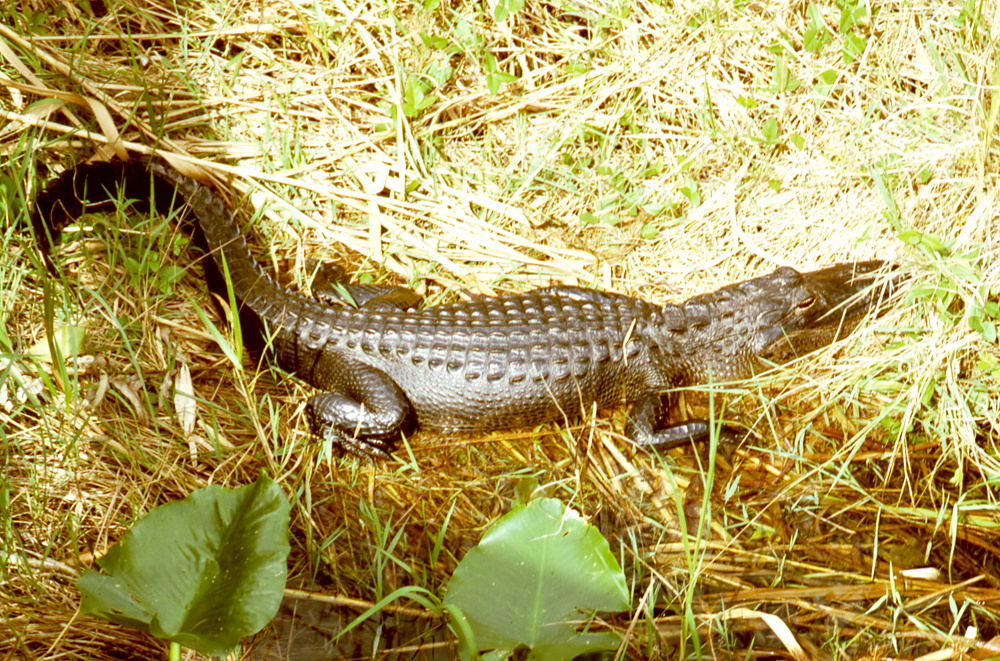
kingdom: Animalia
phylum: Chordata
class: Crocodylia
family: Alligatoridae
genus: Alligator
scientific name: Alligator mississippiensis
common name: American alligator
